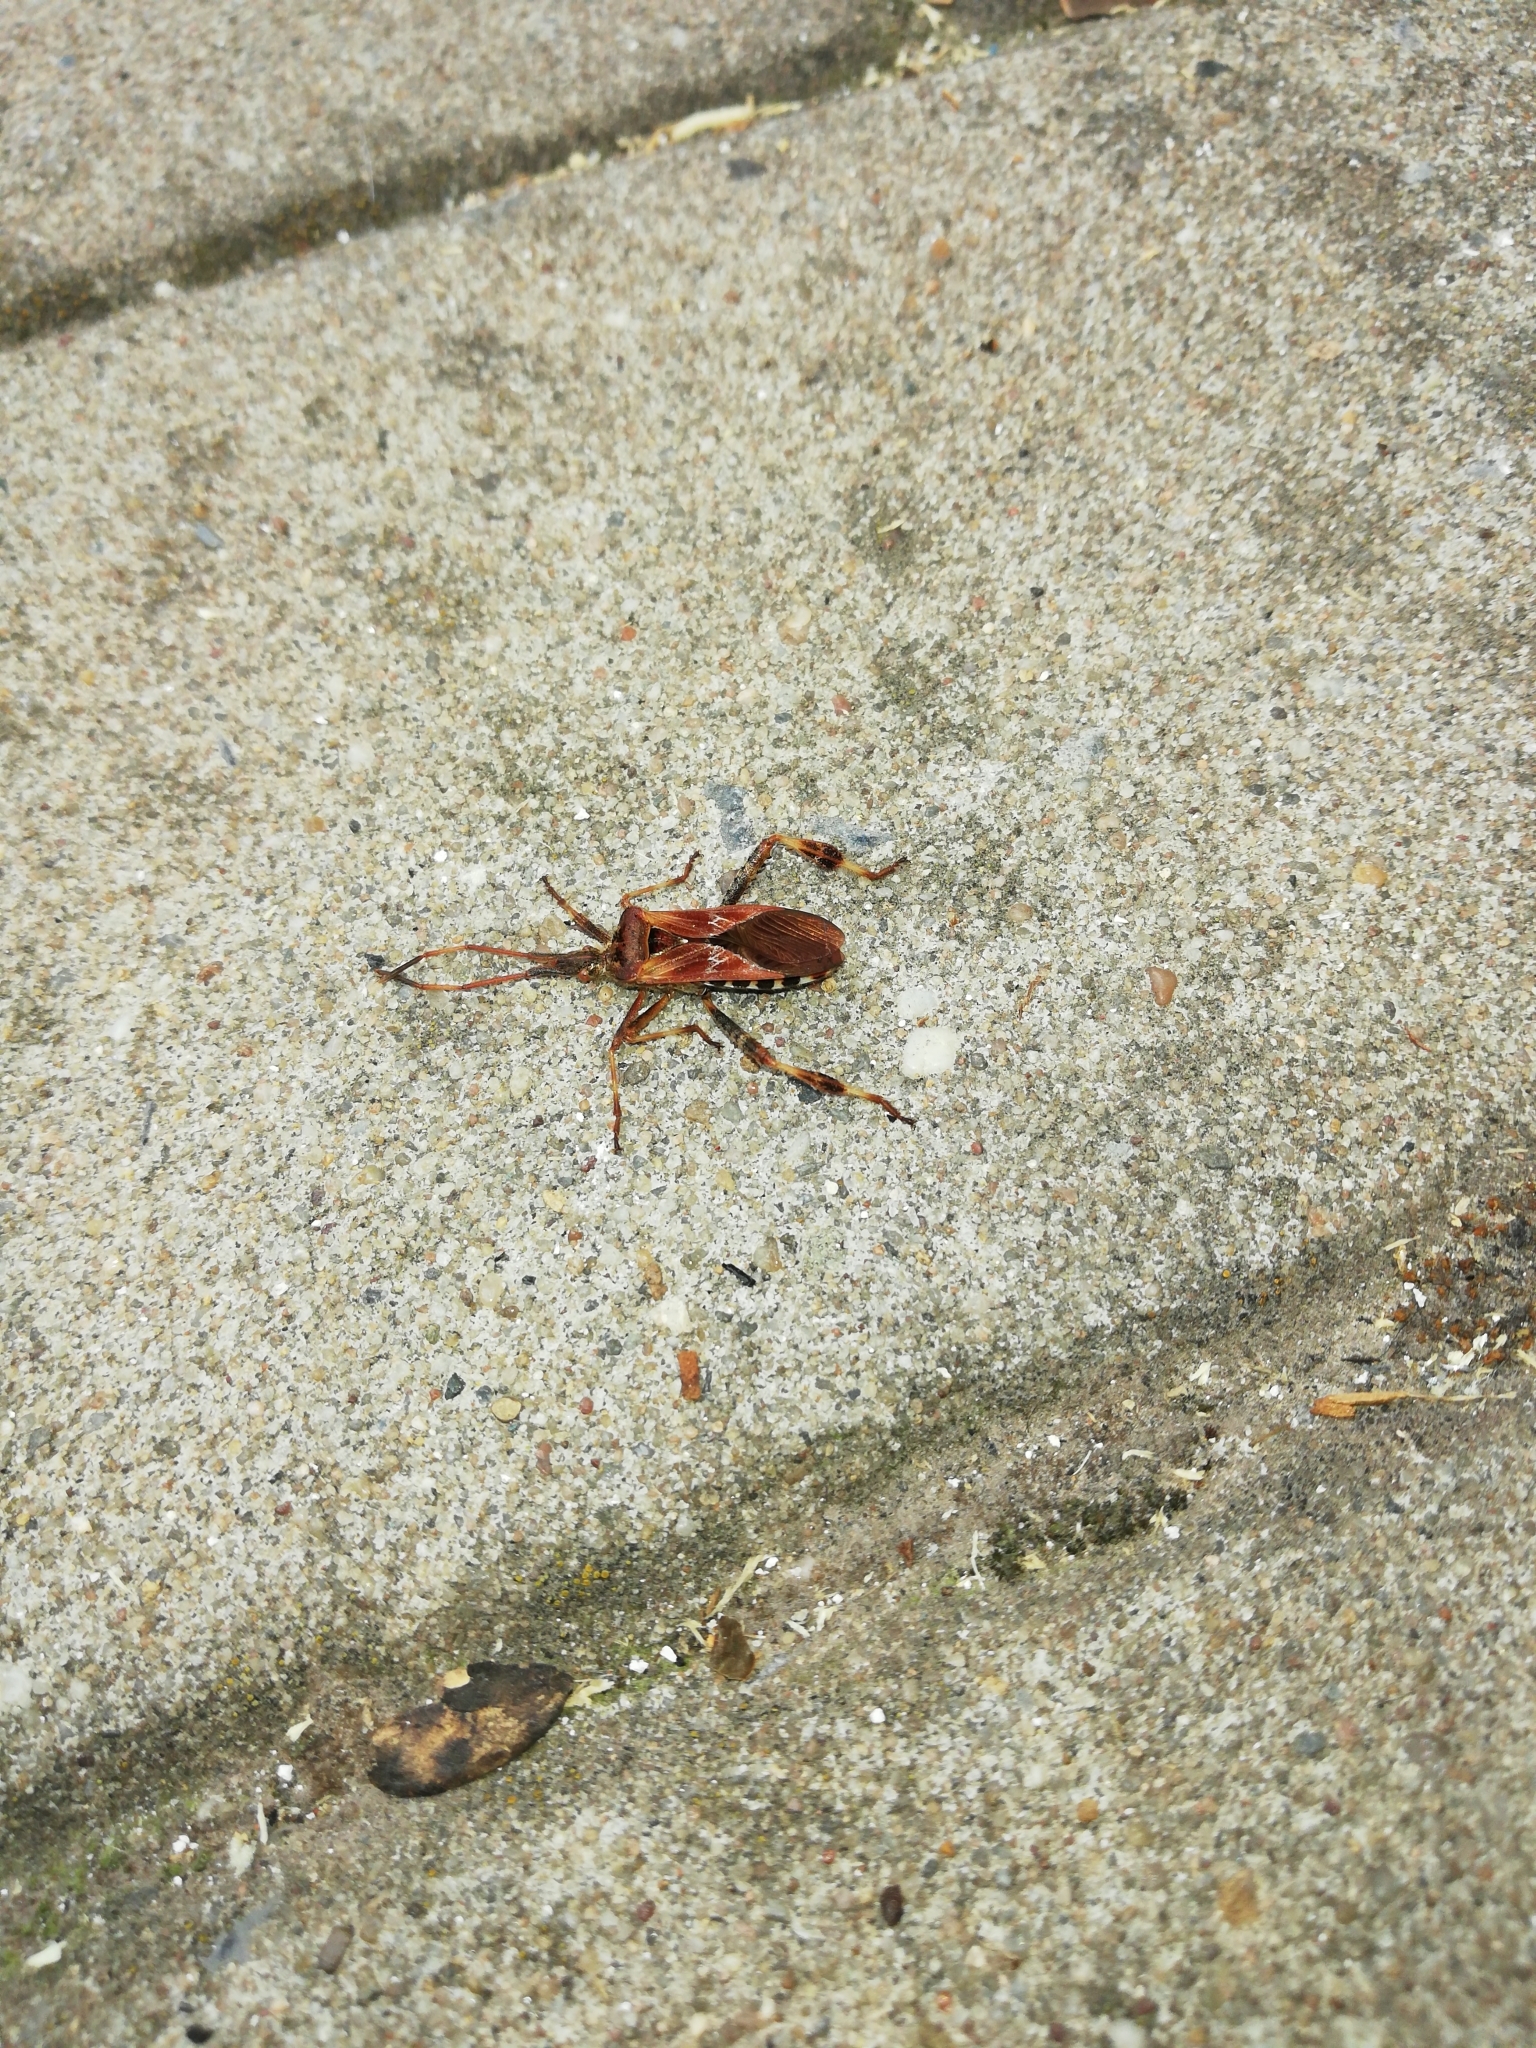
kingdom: Animalia
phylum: Arthropoda
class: Insecta
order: Hemiptera
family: Coreidae
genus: Leptoglossus
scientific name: Leptoglossus occidentalis
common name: Western conifer-seed bug
